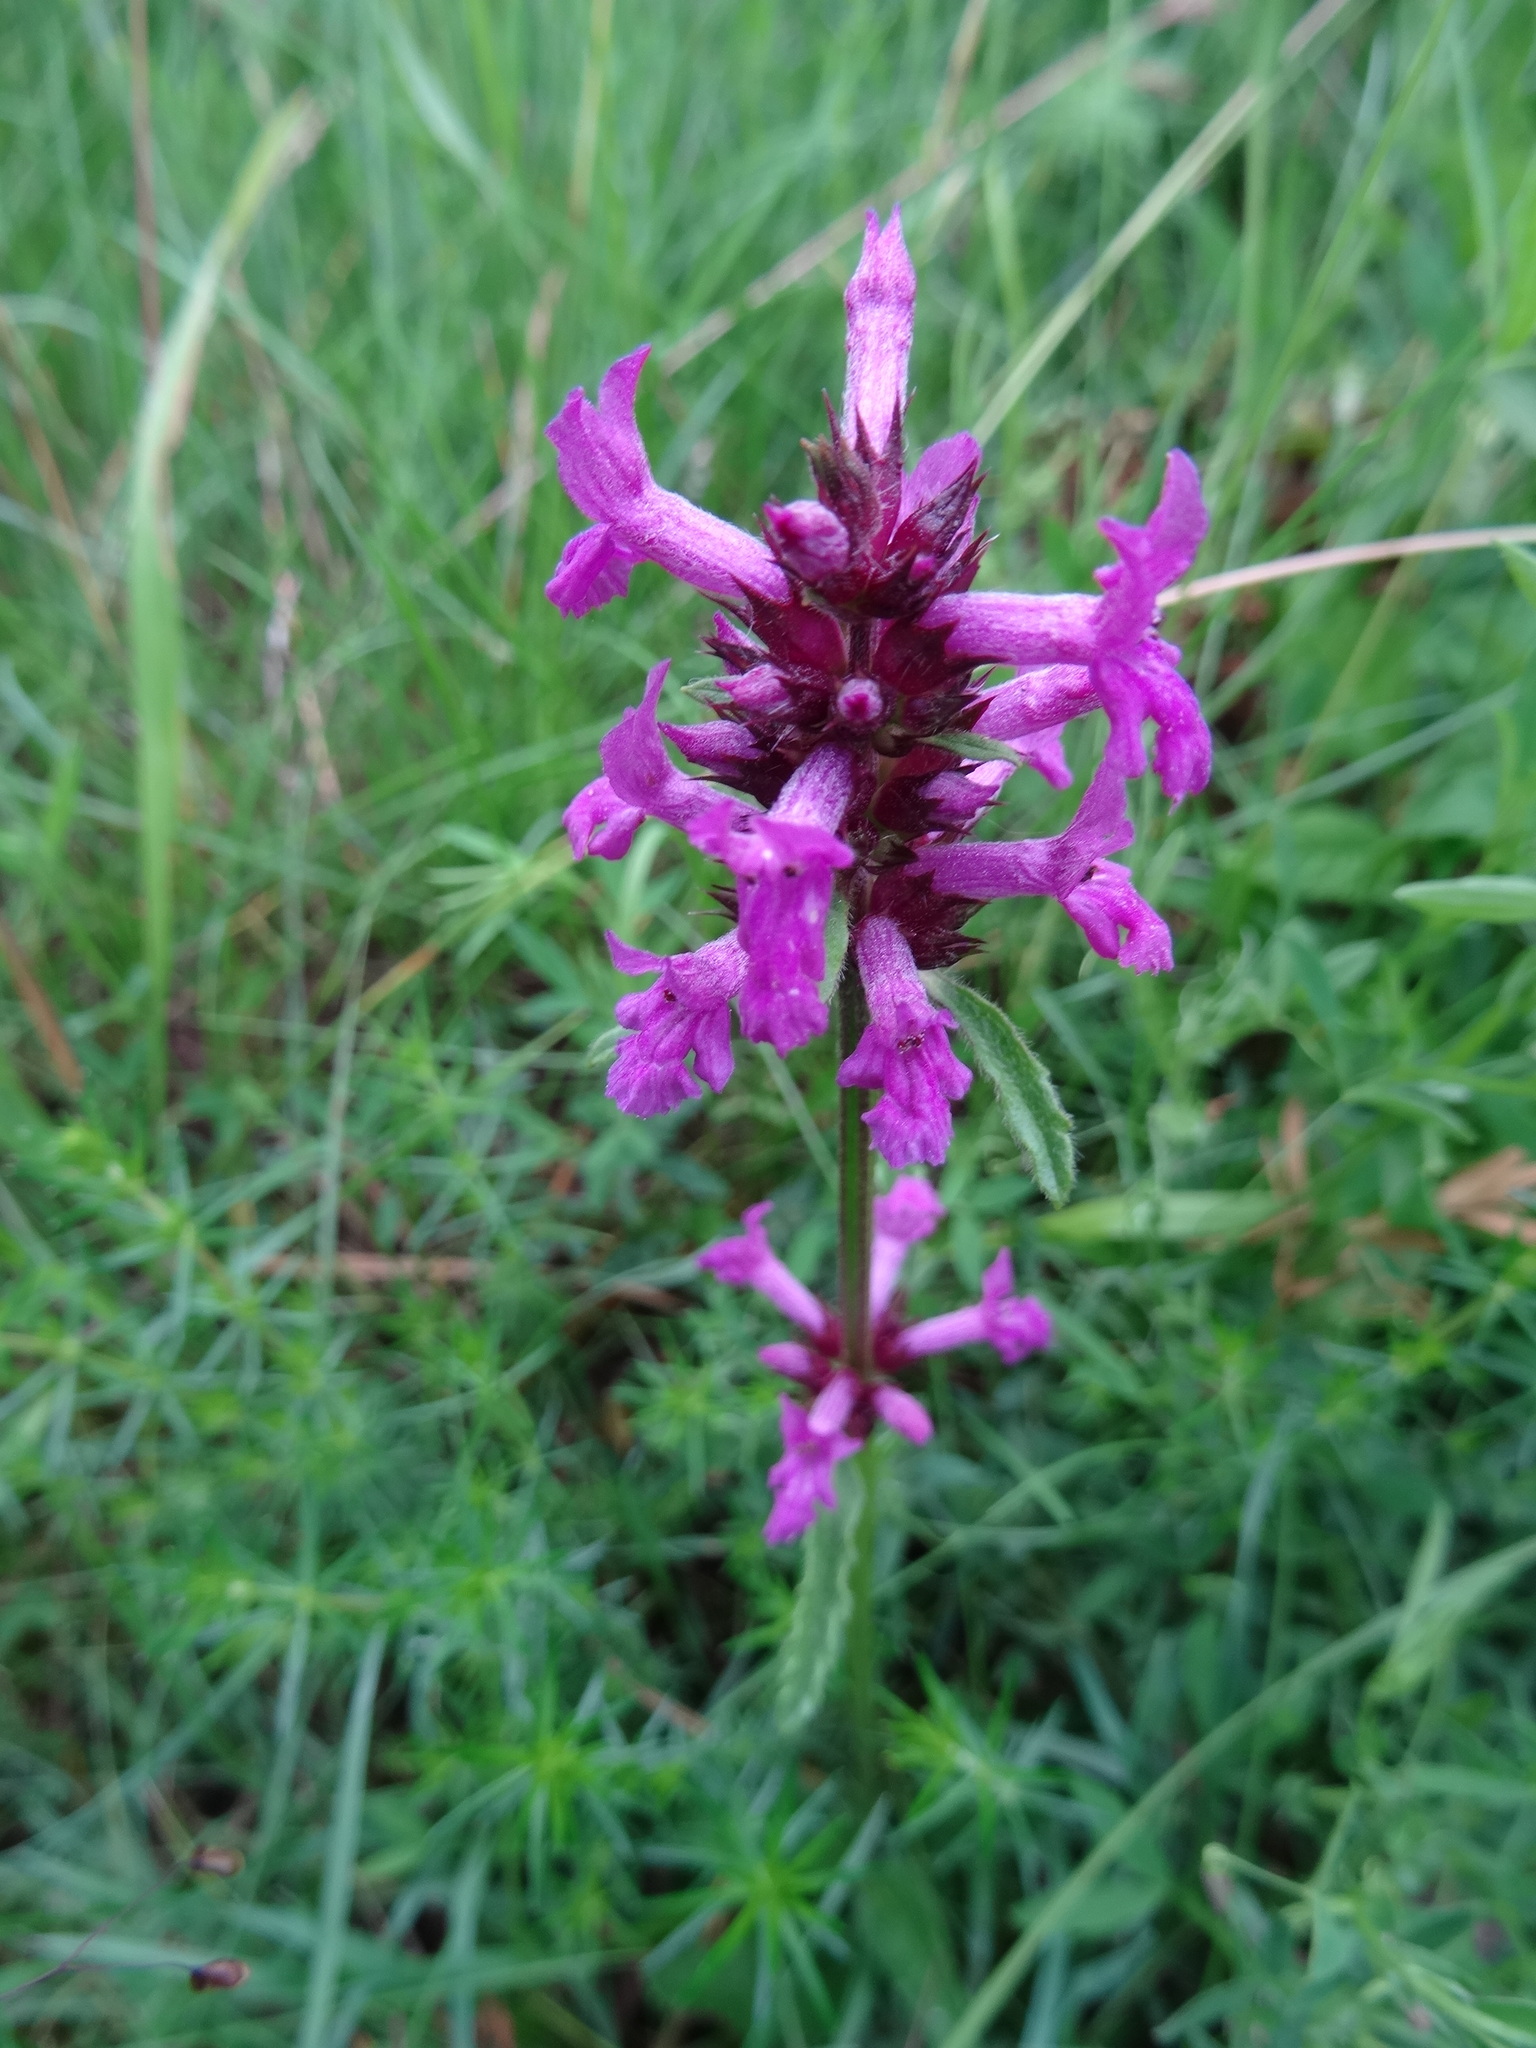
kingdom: Plantae
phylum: Tracheophyta
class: Magnoliopsida
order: Lamiales
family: Lamiaceae
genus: Betonica
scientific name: Betonica officinalis
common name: Bishop's-wort
